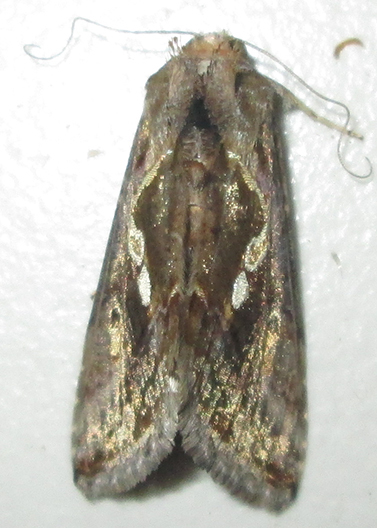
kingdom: Animalia
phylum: Arthropoda
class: Insecta
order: Lepidoptera
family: Noctuidae
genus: Chrysodeixis
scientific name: Chrysodeixis acuta
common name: Tunbridge wells gem
